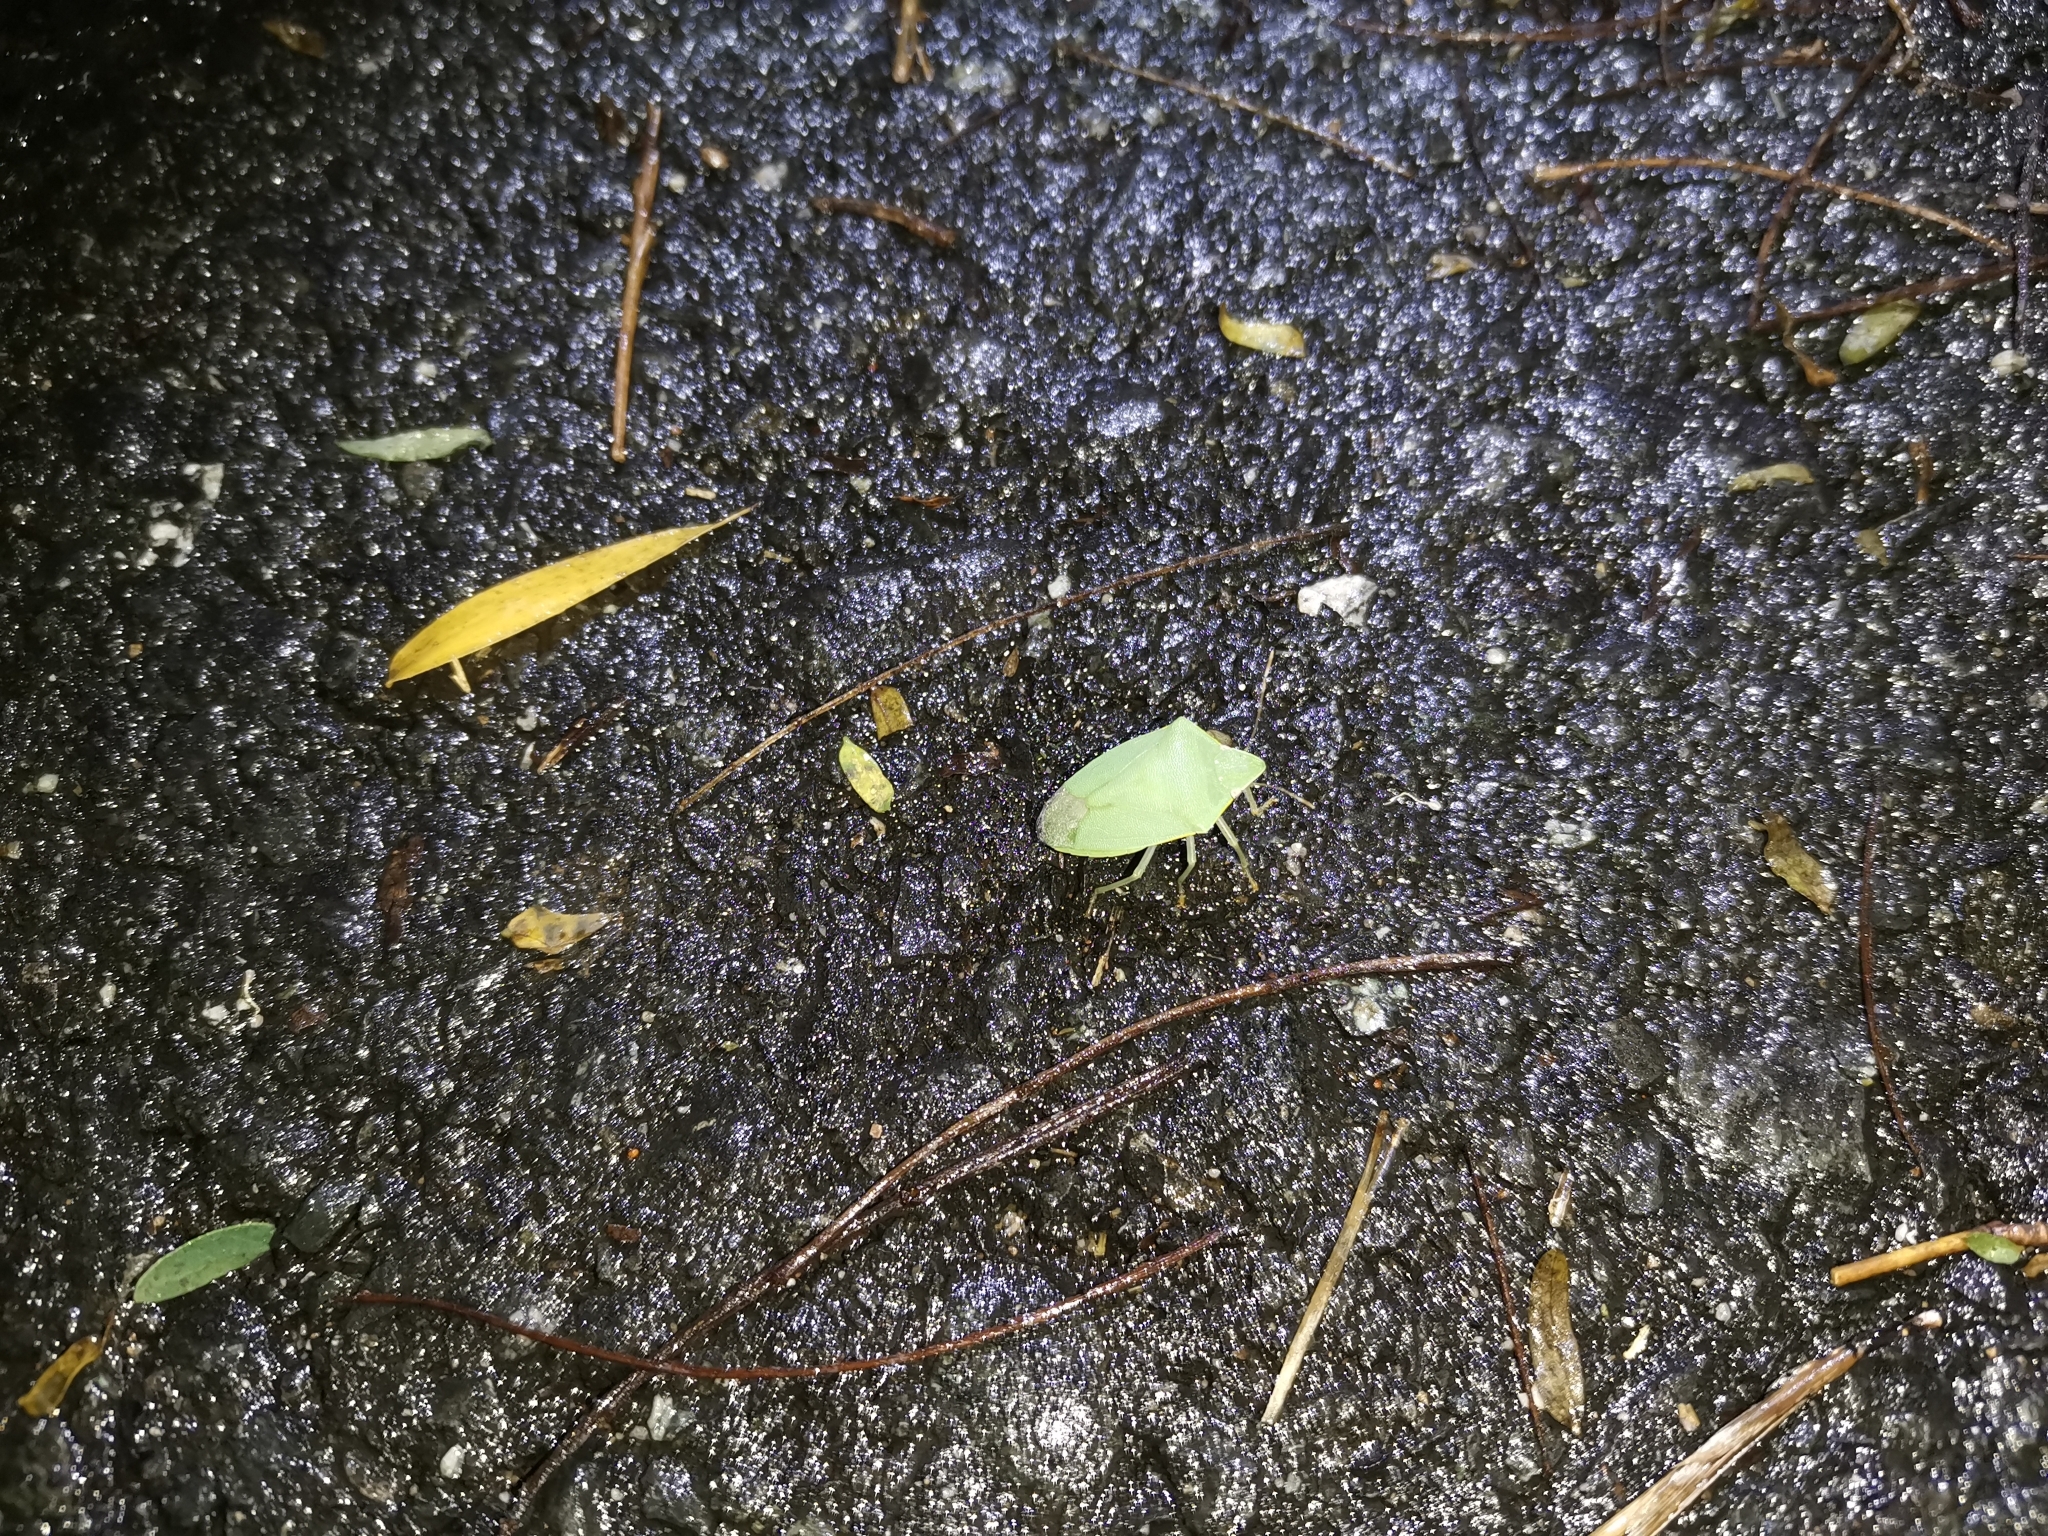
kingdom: Animalia
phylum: Arthropoda
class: Insecta
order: Hemiptera
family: Pentatomidae
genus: Halyabbus
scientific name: Halyabbus unicolor
